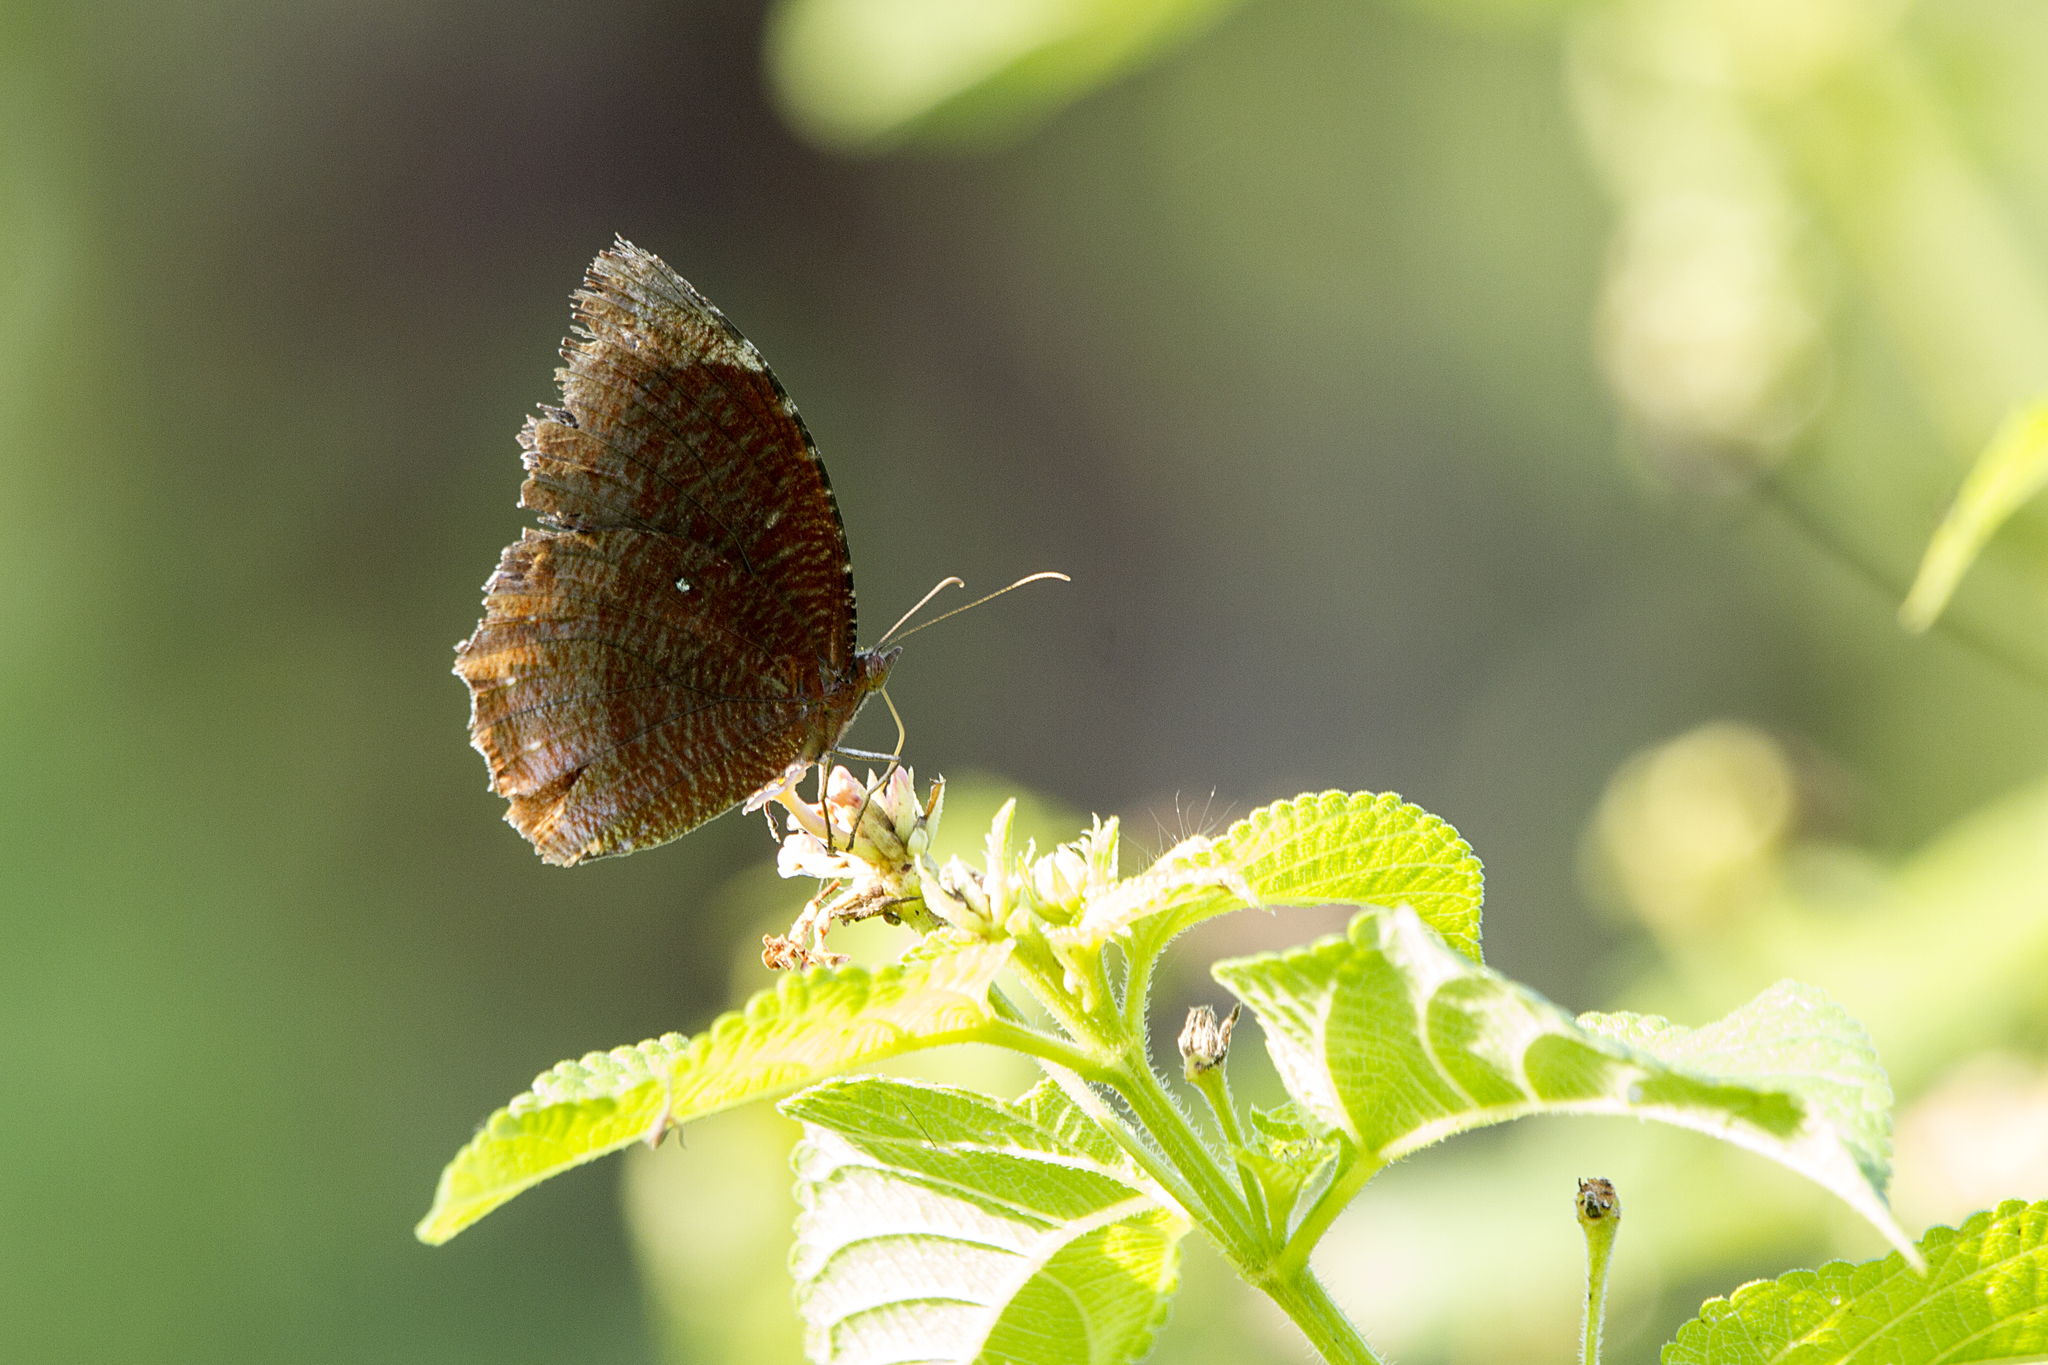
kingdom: Animalia
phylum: Arthropoda
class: Insecta
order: Lepidoptera
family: Nymphalidae
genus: Elymnias
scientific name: Elymnias hypermnestra
